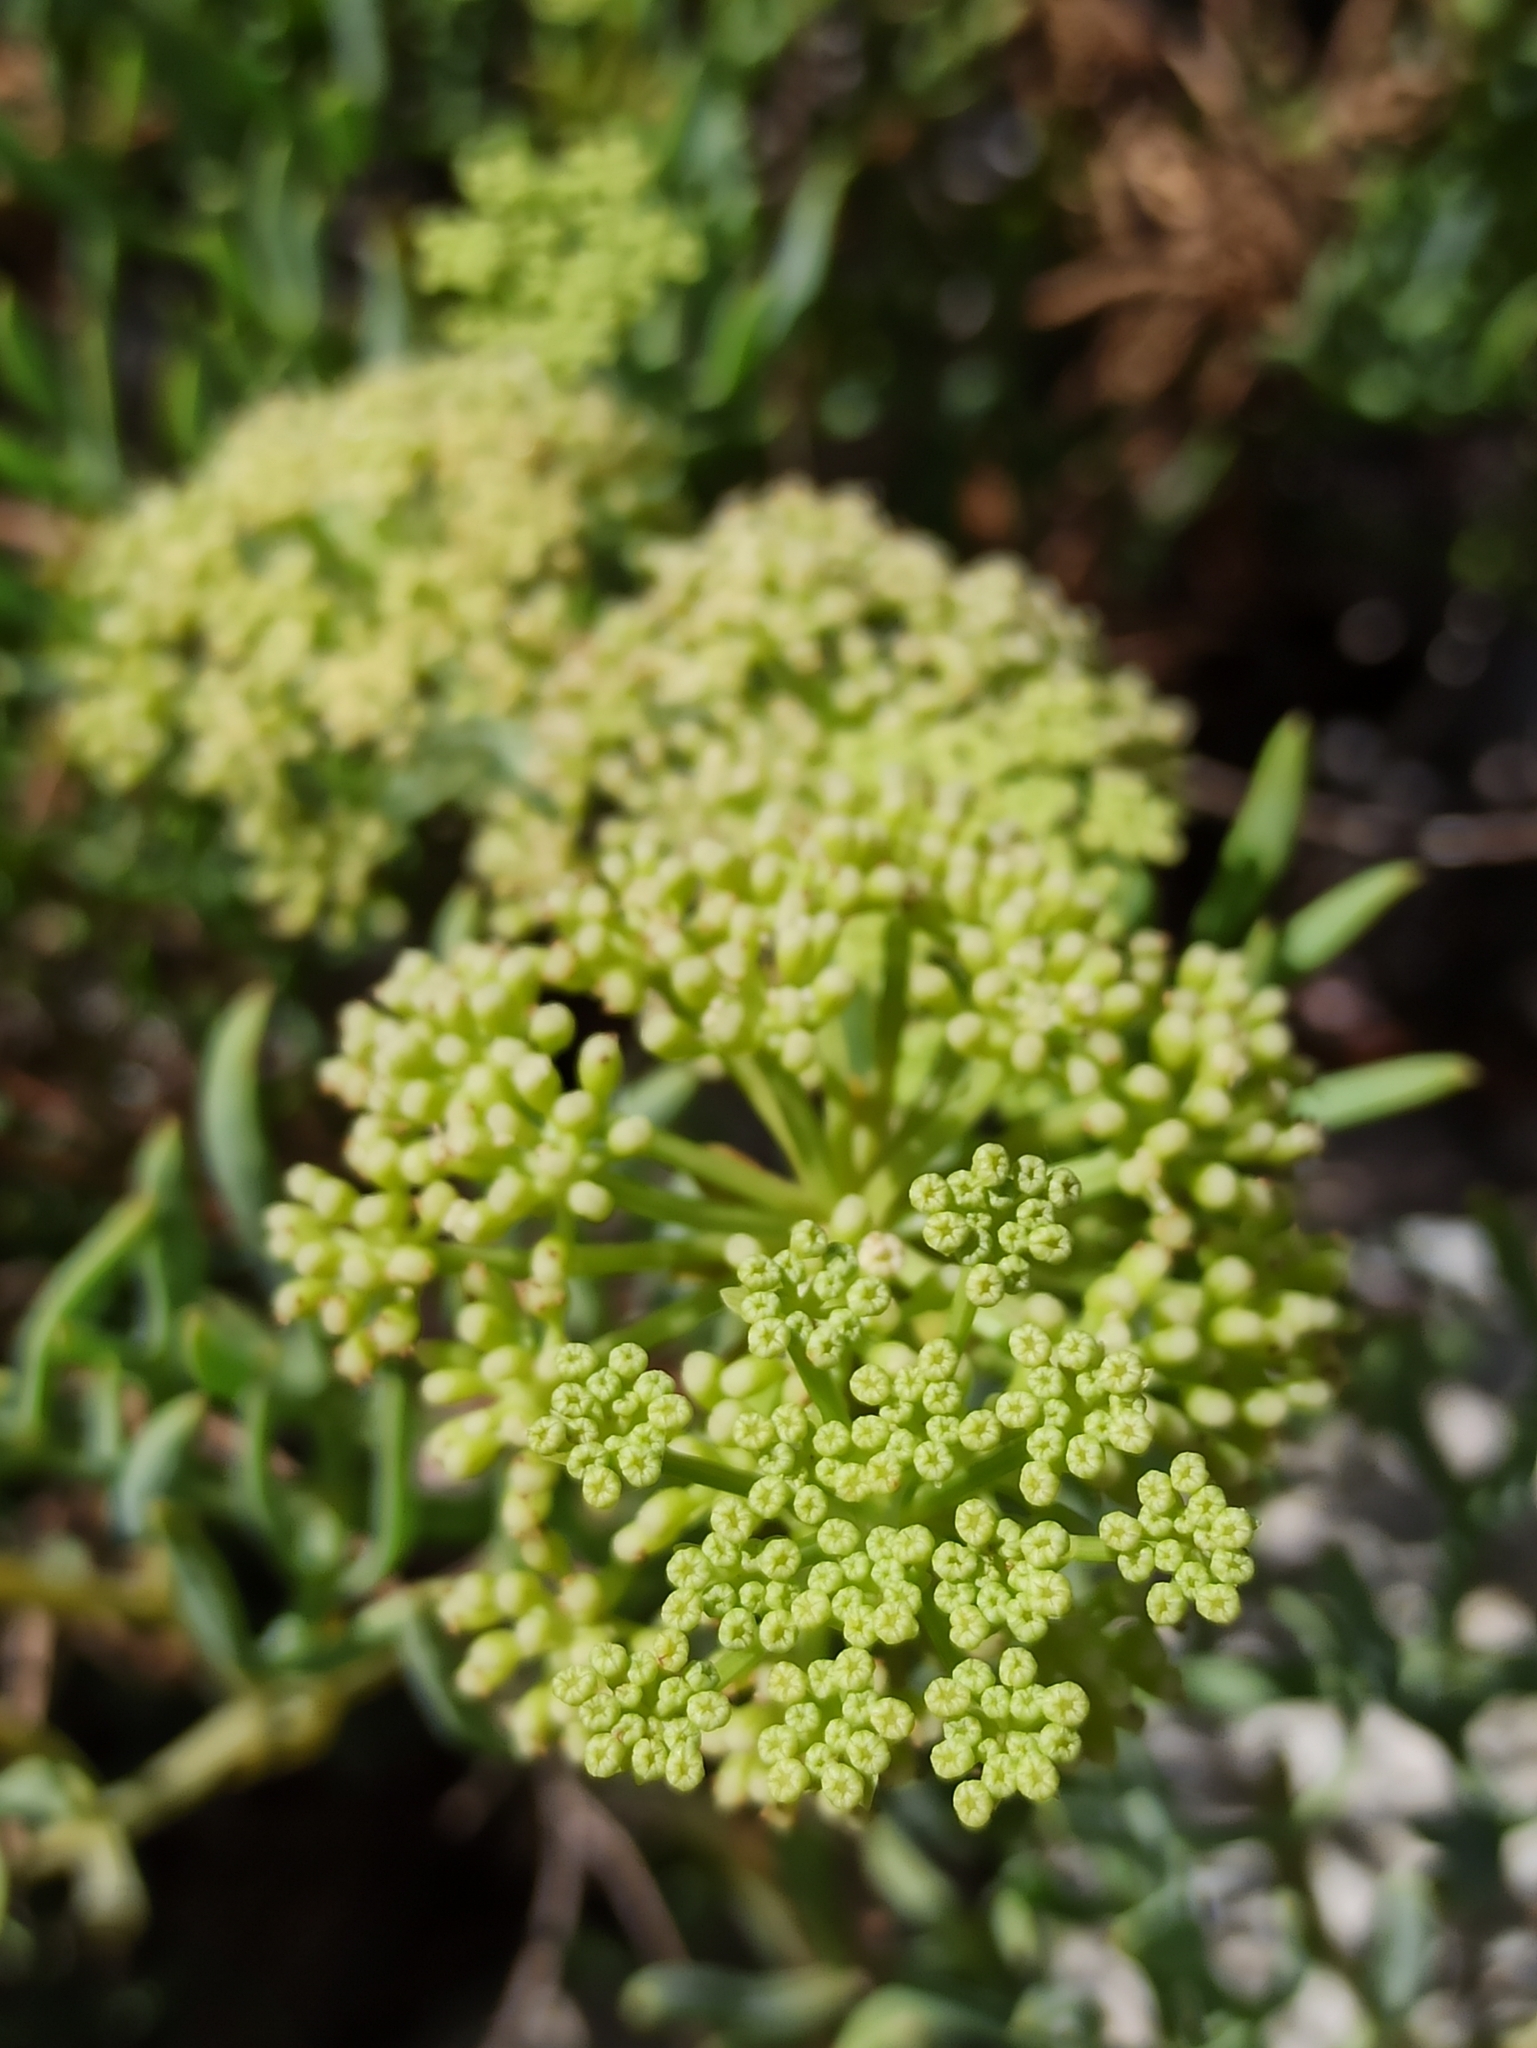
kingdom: Plantae
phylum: Tracheophyta
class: Magnoliopsida
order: Apiales
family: Apiaceae
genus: Crithmum
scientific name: Crithmum maritimum
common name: Rock samphire
